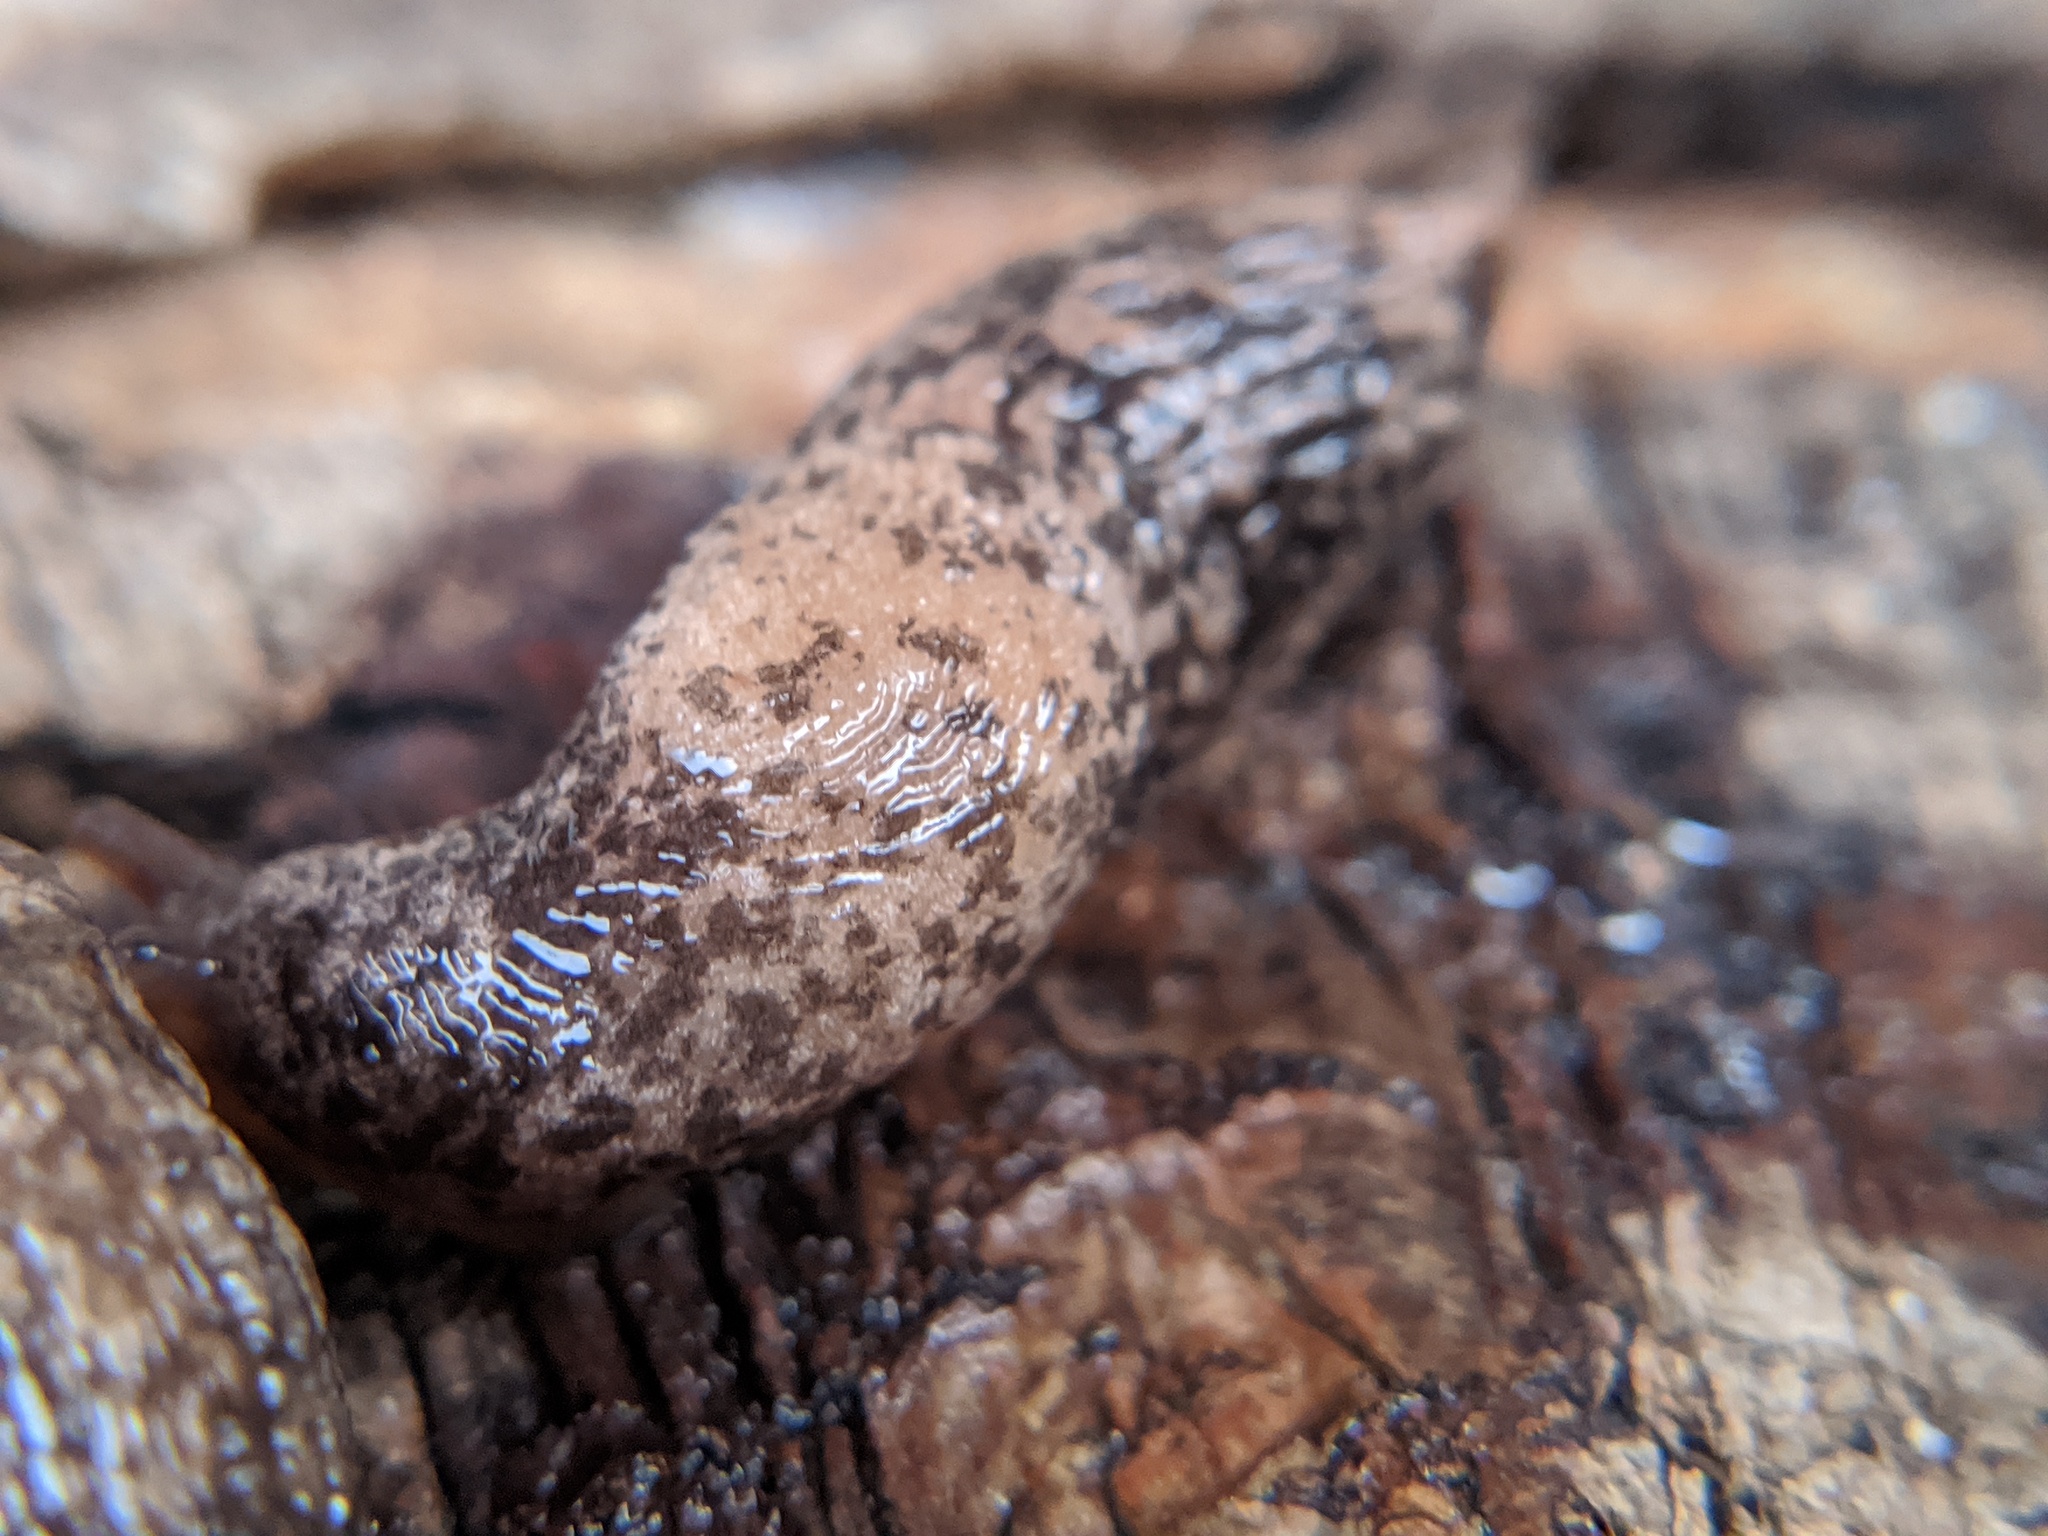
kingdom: Animalia
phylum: Mollusca
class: Gastropoda
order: Stylommatophora
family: Agriolimacidae
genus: Deroceras
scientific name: Deroceras reticulatum
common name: Gray field slug
